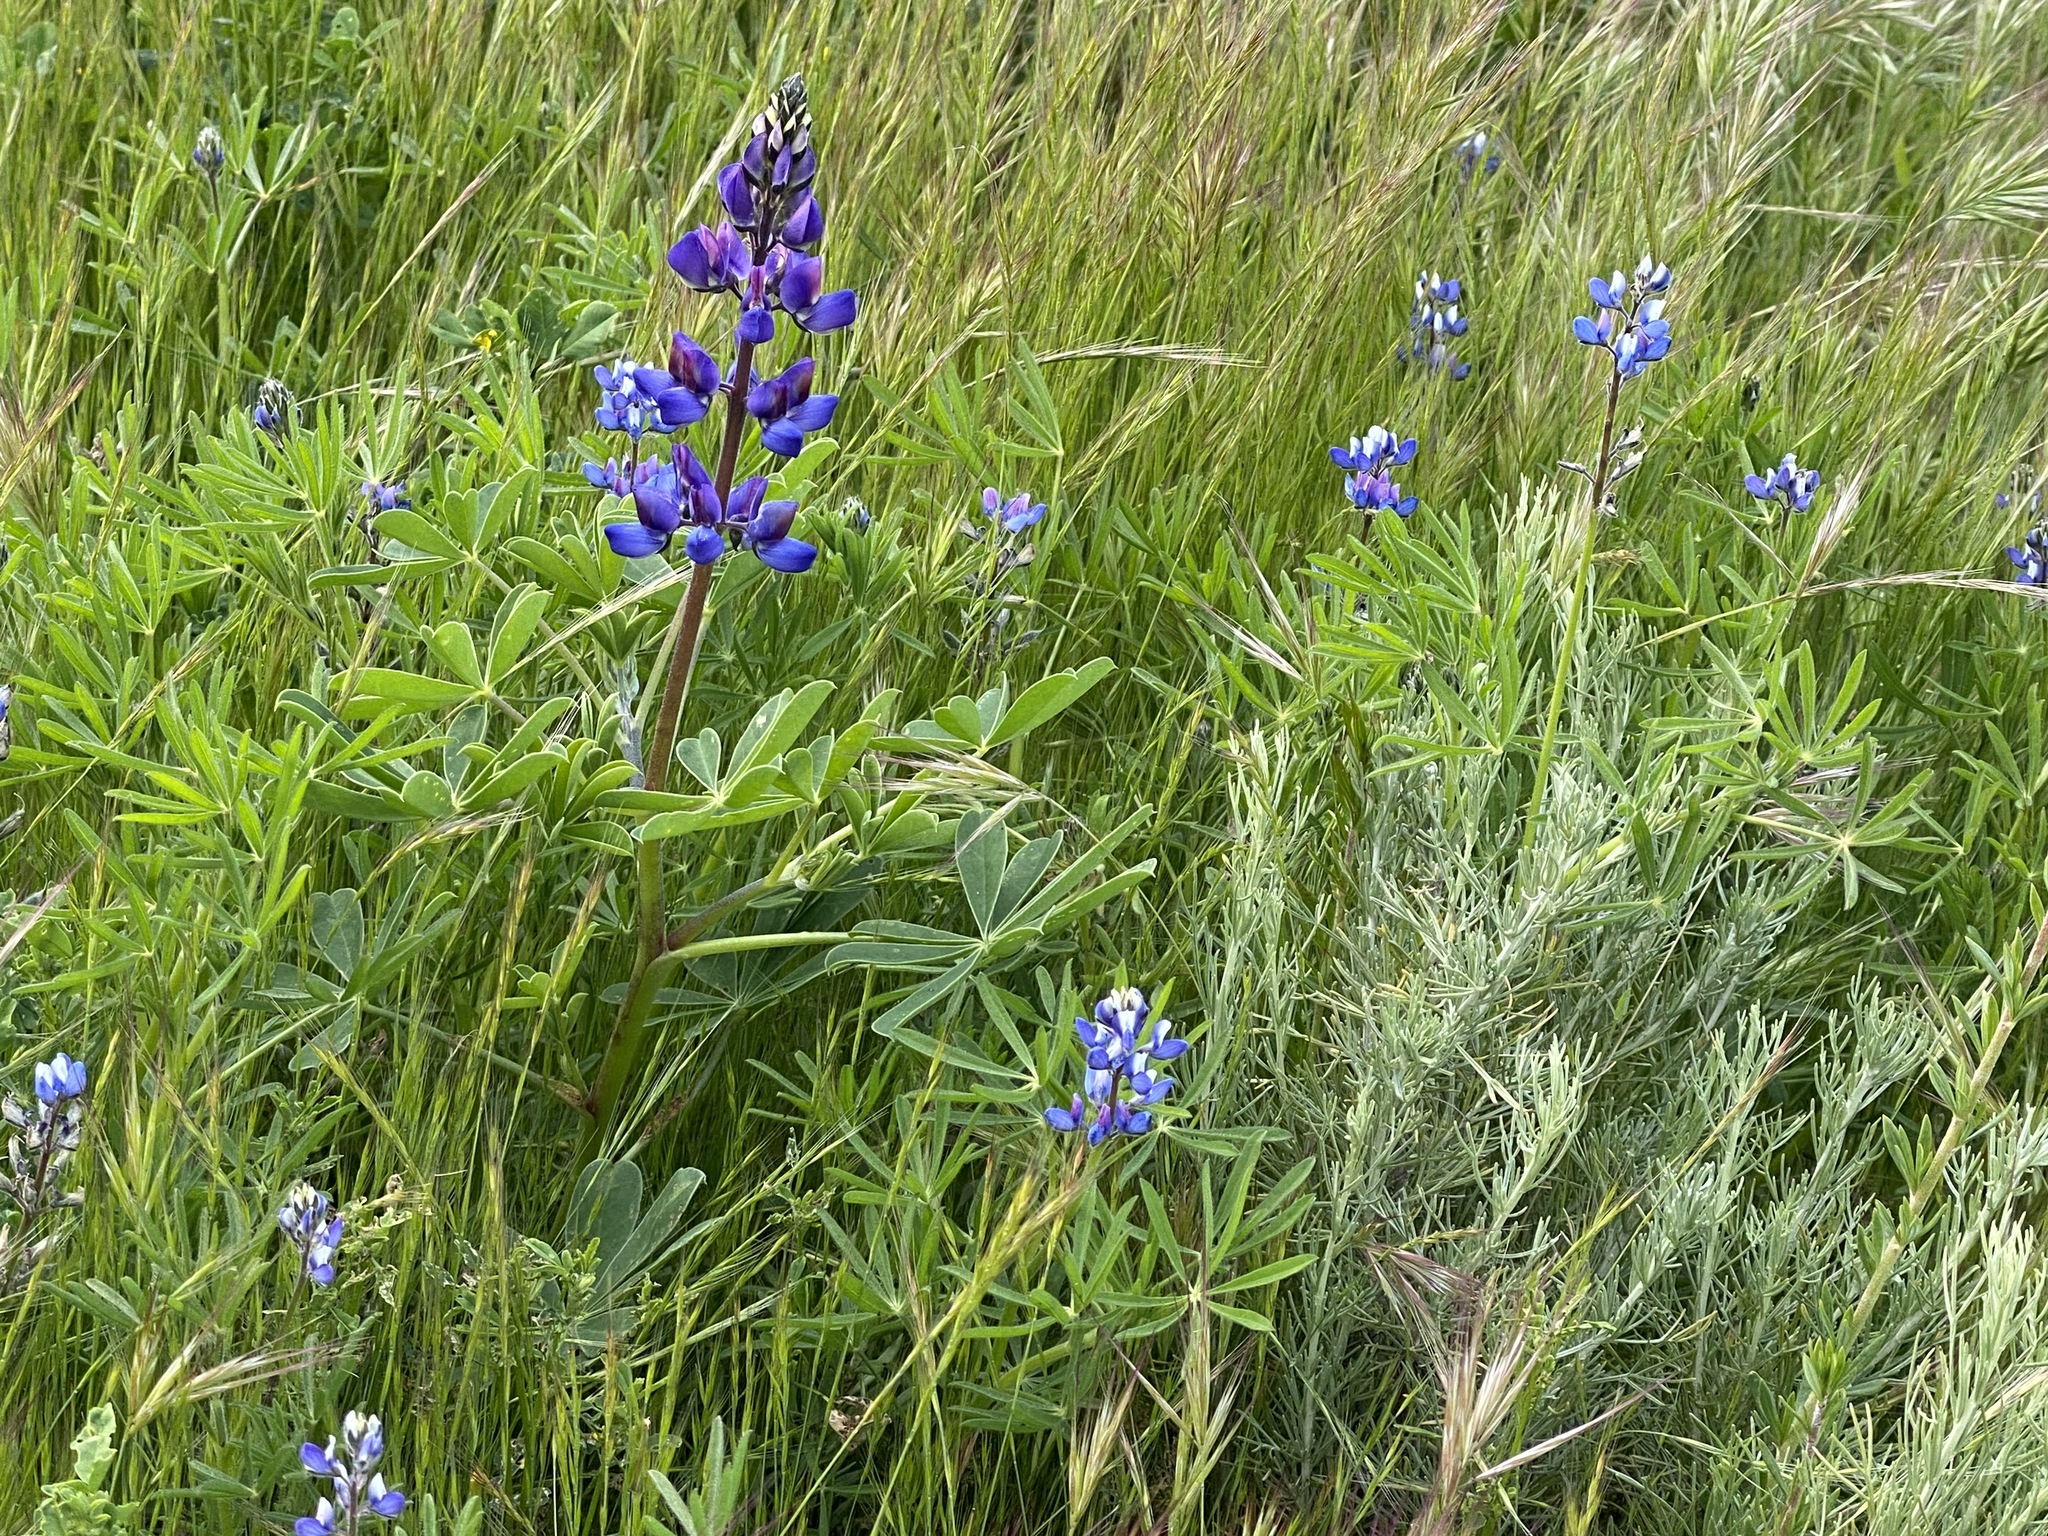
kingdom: Plantae
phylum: Tracheophyta
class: Magnoliopsida
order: Fabales
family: Fabaceae
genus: Lupinus
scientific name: Lupinus succulentus
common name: Arroyo lupine
